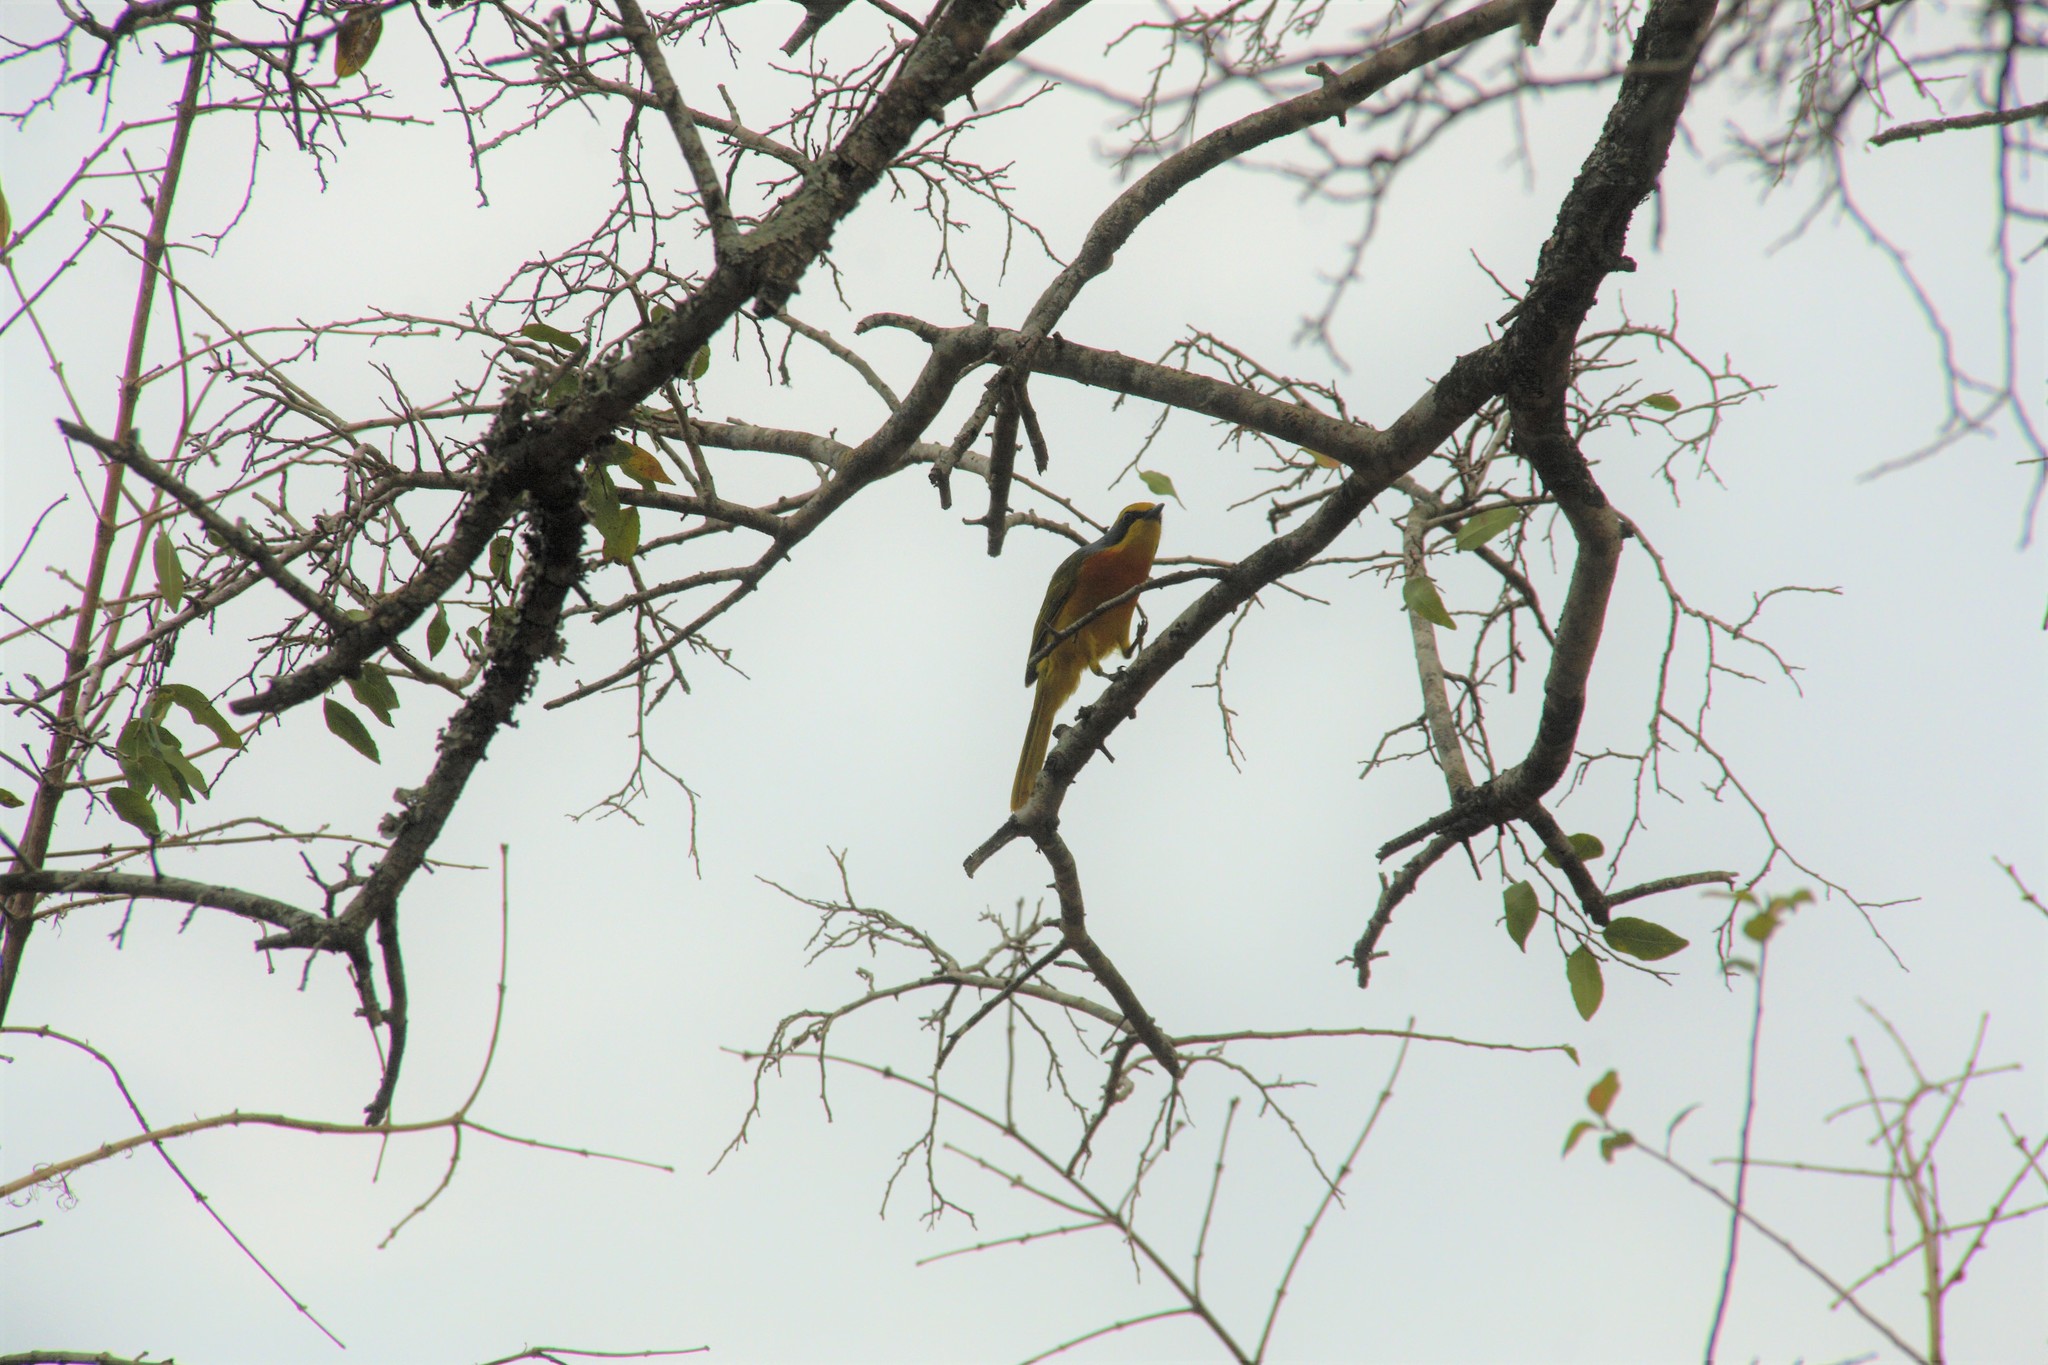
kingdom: Animalia
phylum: Chordata
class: Aves
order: Passeriformes
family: Malaconotidae
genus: Chlorophoneus
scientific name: Chlorophoneus sulfureopectus
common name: Orange-breasted bushshrike
